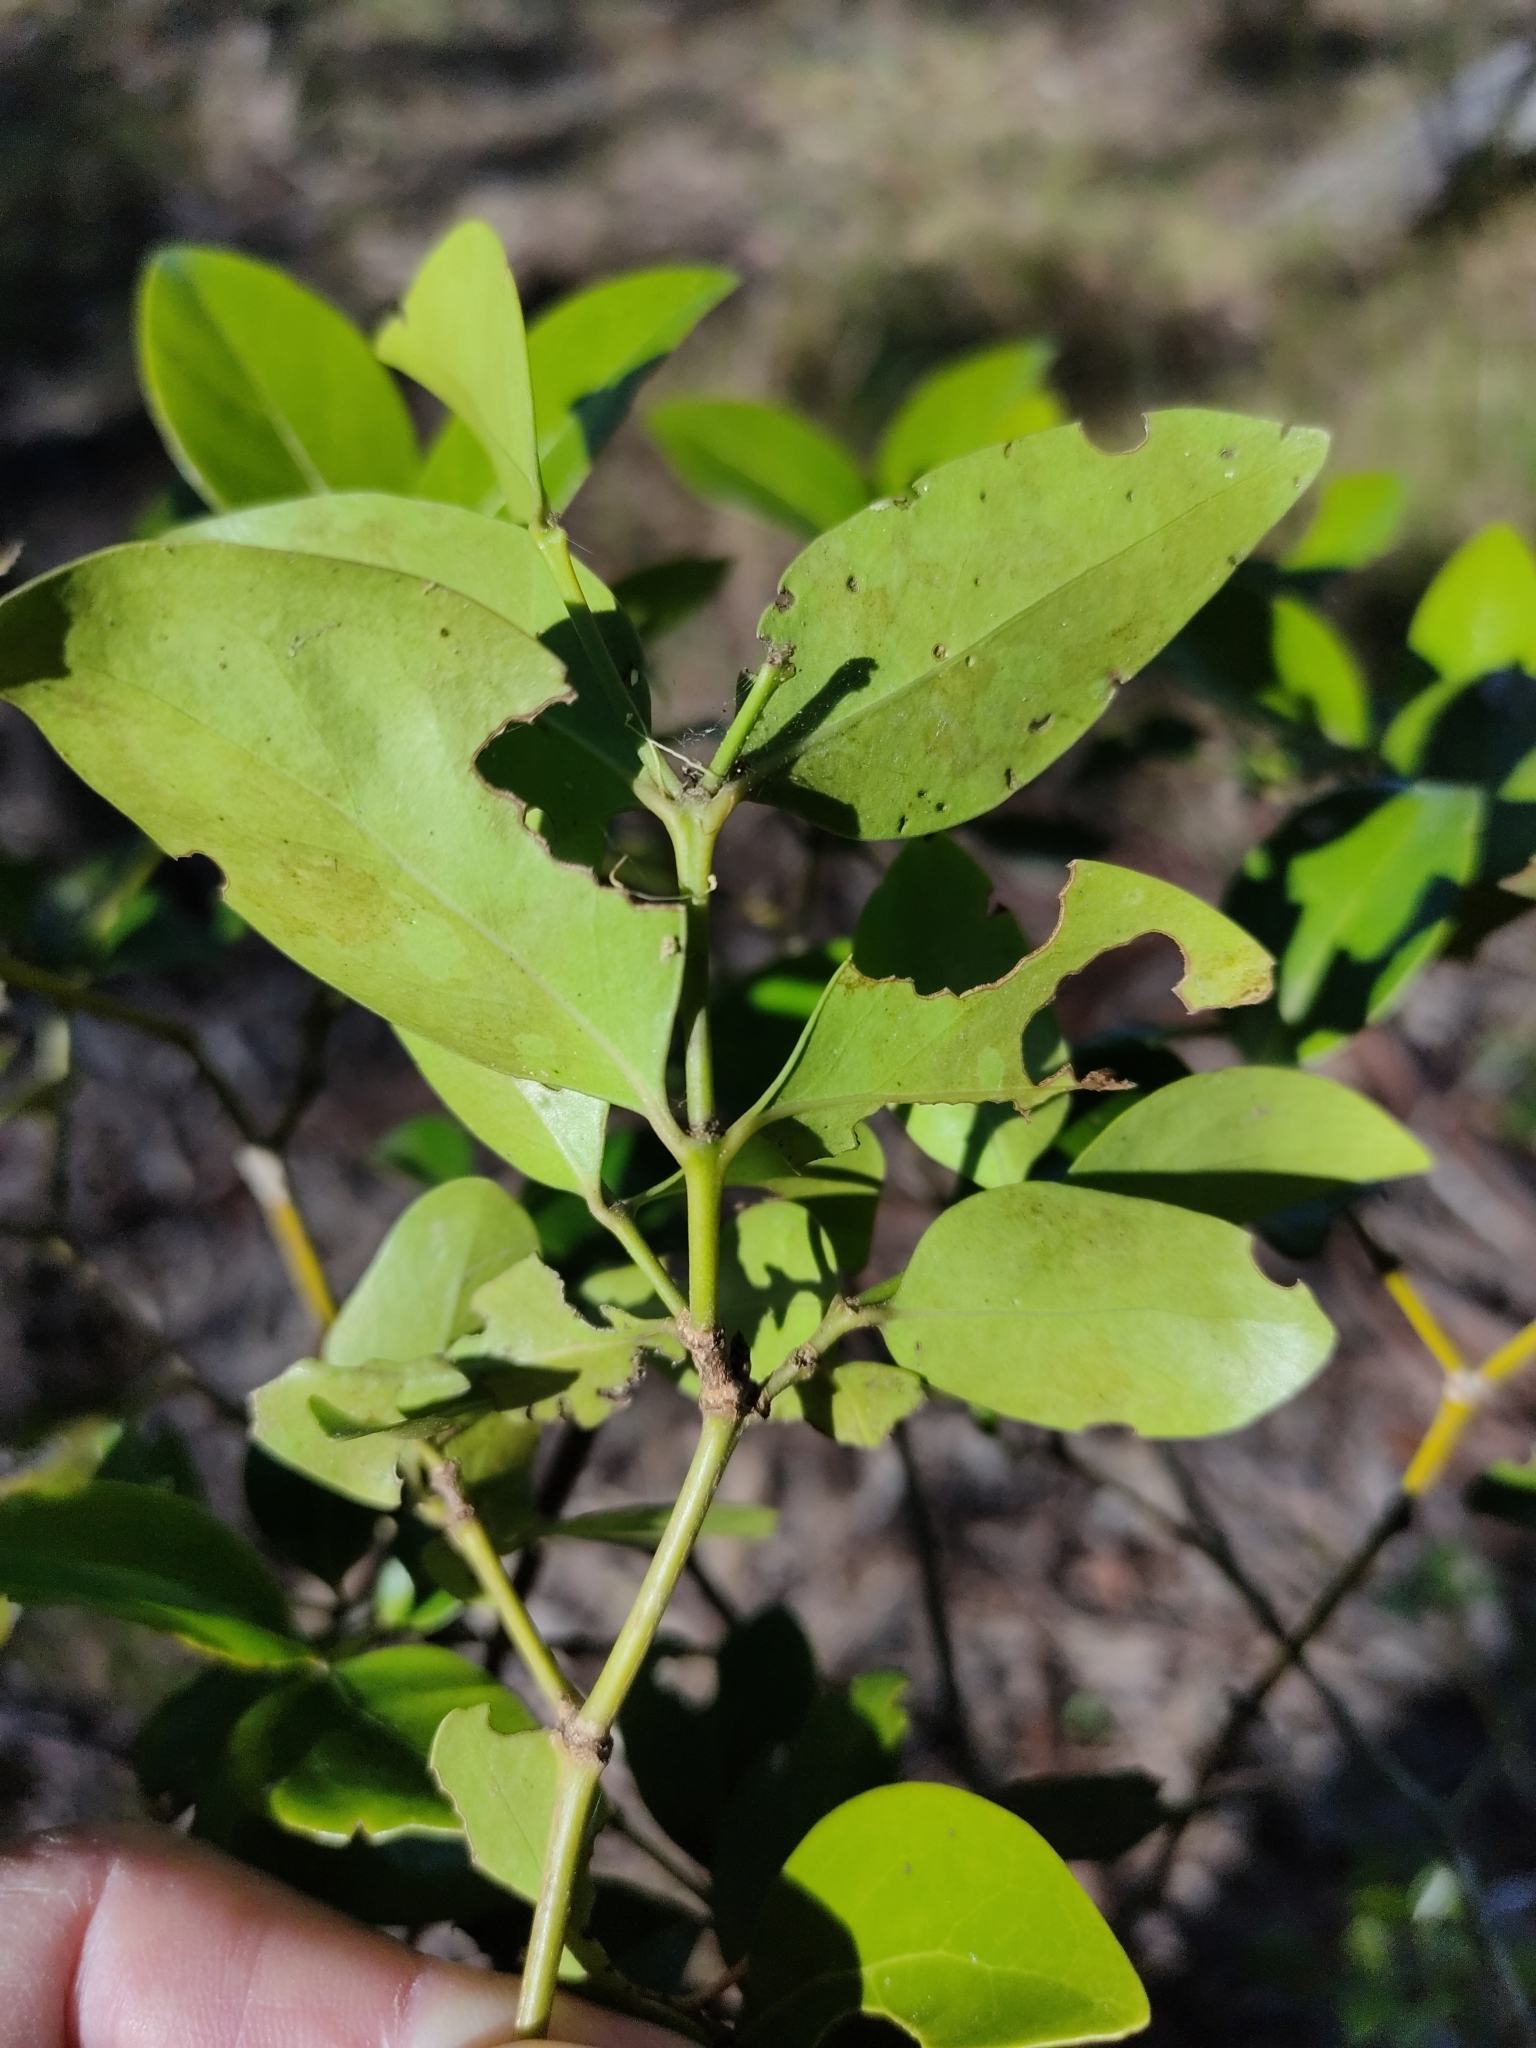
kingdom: Plantae
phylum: Tracheophyta
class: Magnoliopsida
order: Gentianales
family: Rubiaceae
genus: Psydrax
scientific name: Psydrax odoratus
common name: Alahe'e
